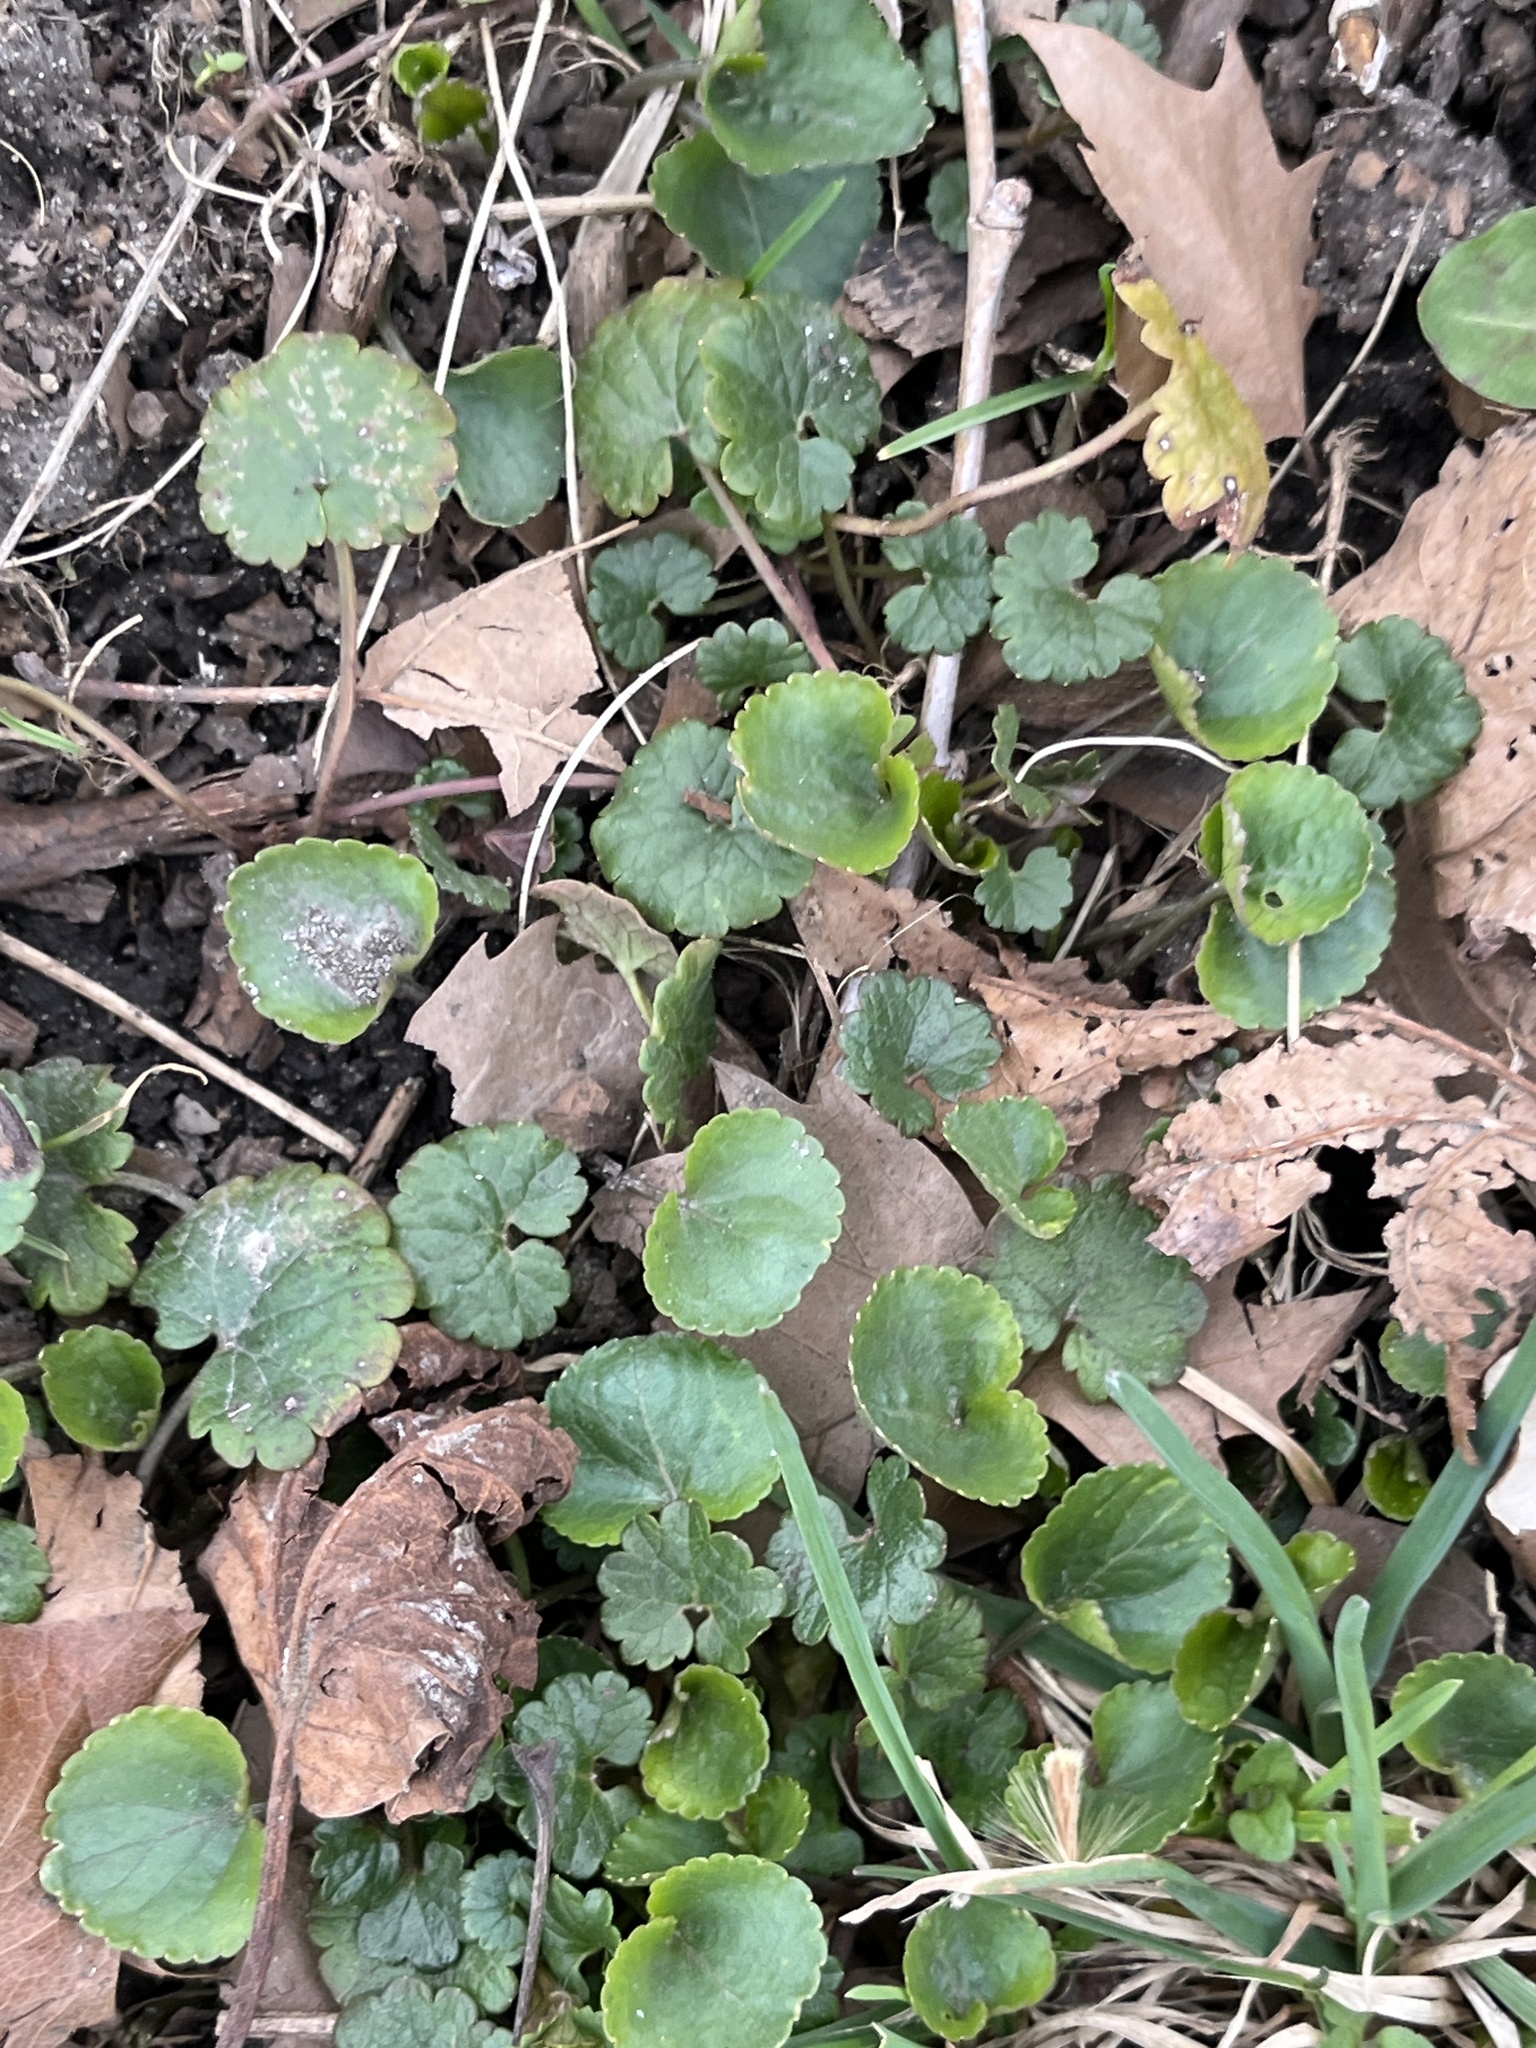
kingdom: Plantae
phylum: Tracheophyta
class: Magnoliopsida
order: Lamiales
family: Lamiaceae
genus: Glechoma
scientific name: Glechoma hederacea
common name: Ground ivy
